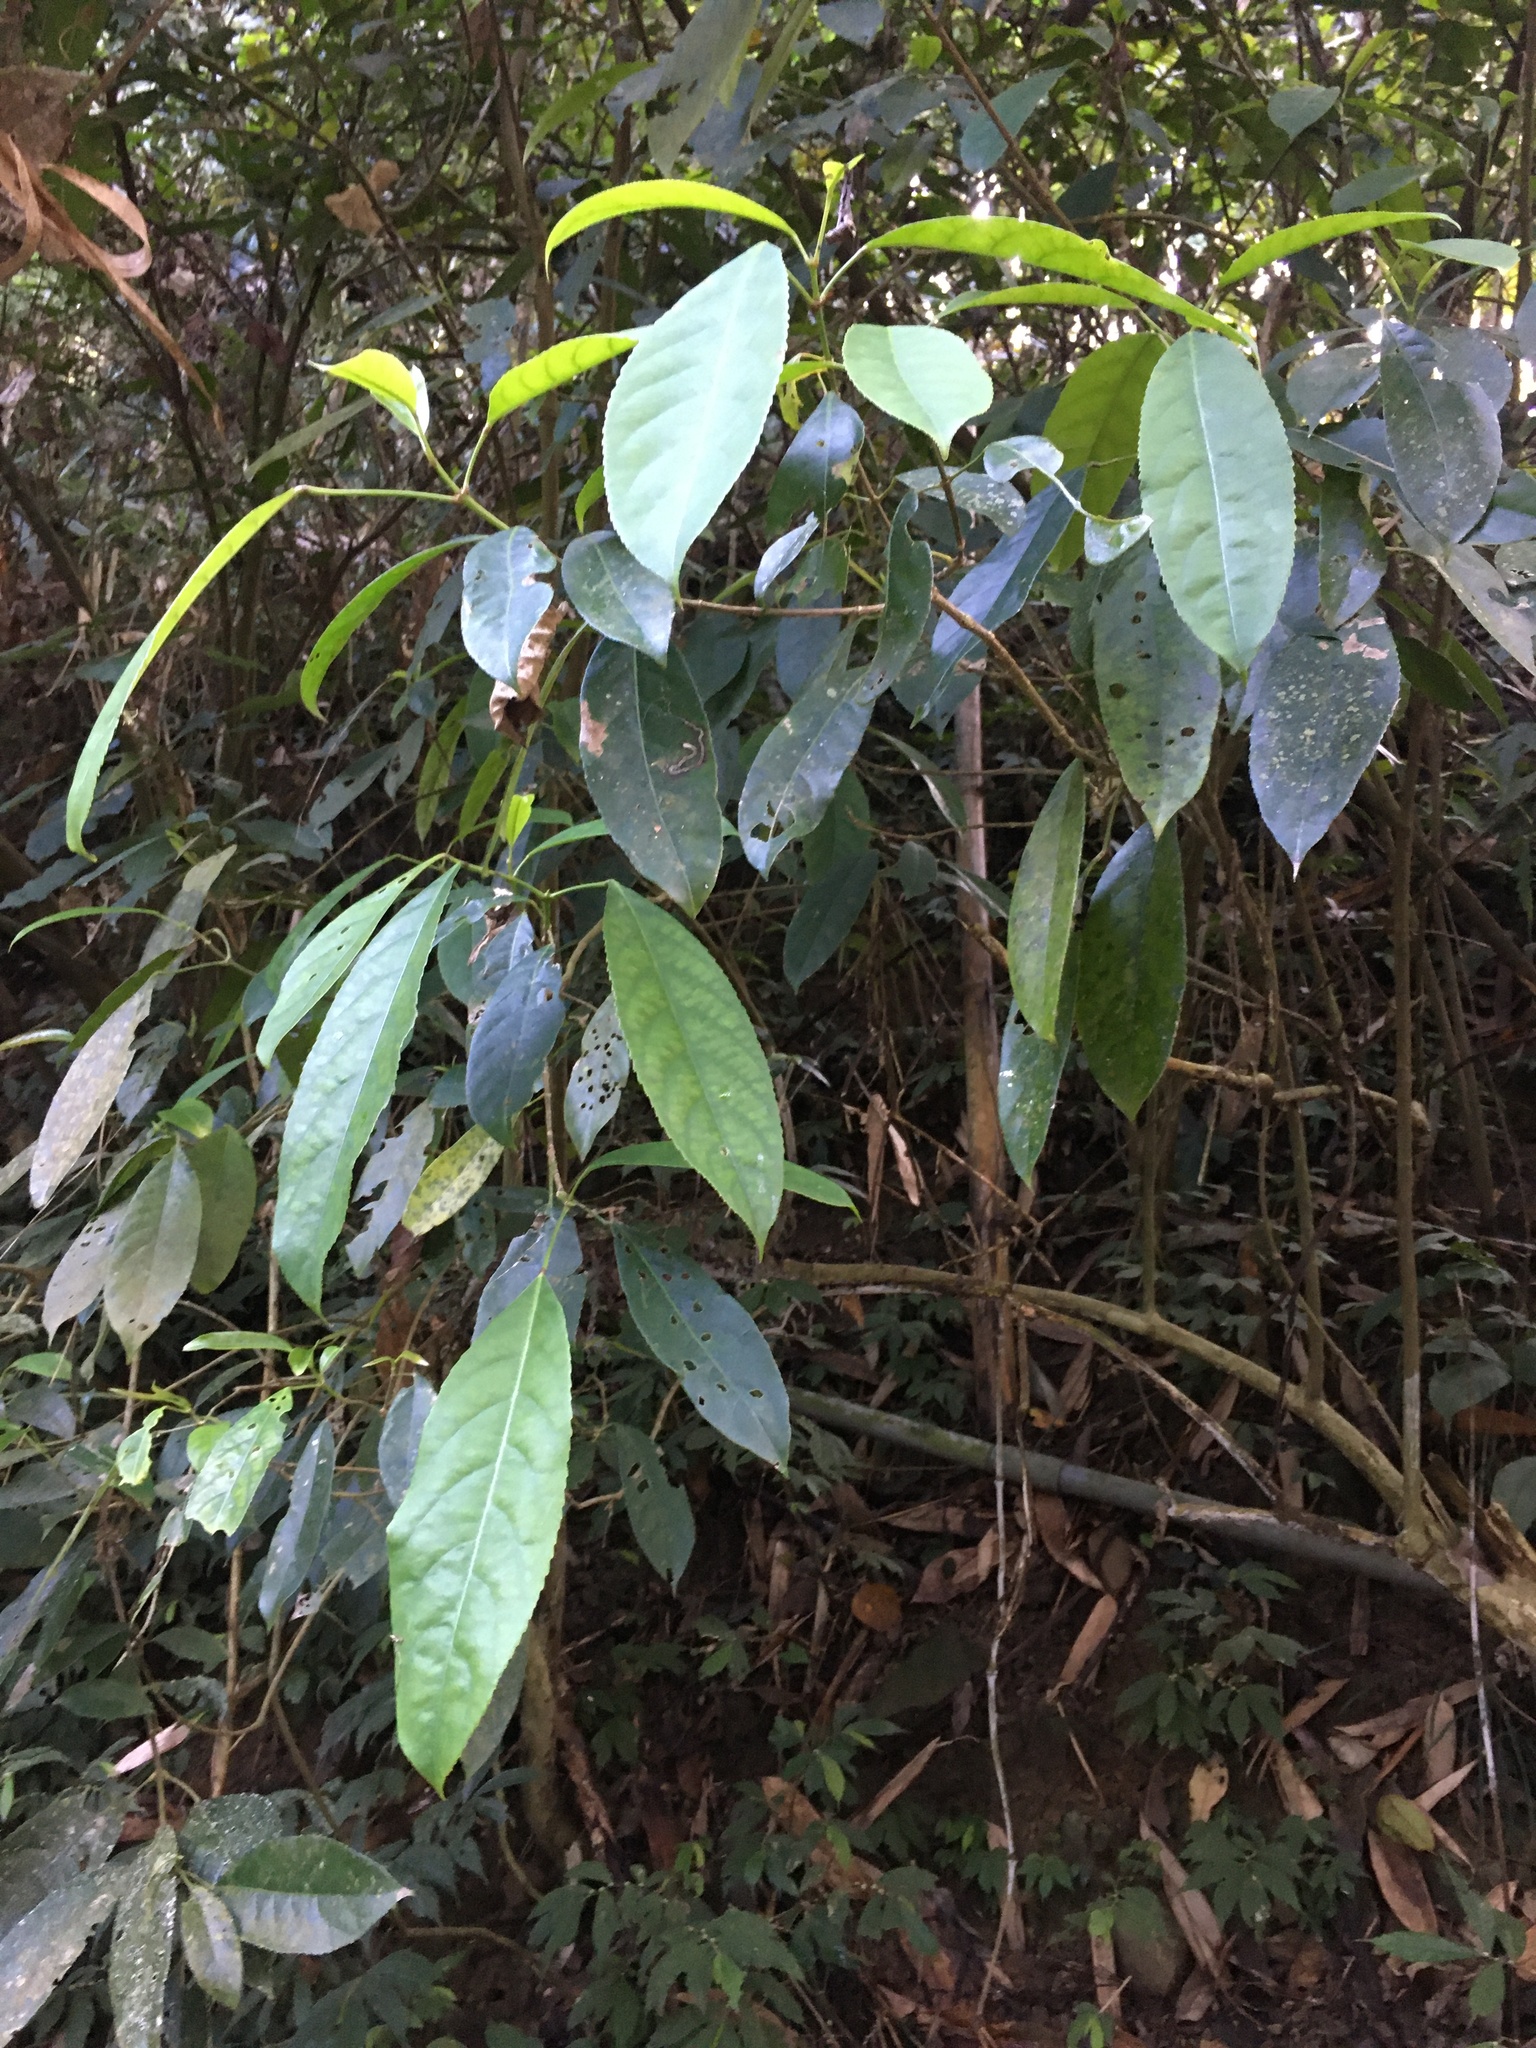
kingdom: Plantae
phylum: Tracheophyta
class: Magnoliopsida
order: Crossosomatales
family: Staphyleaceae
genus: Turpinia
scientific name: Turpinia formosana
